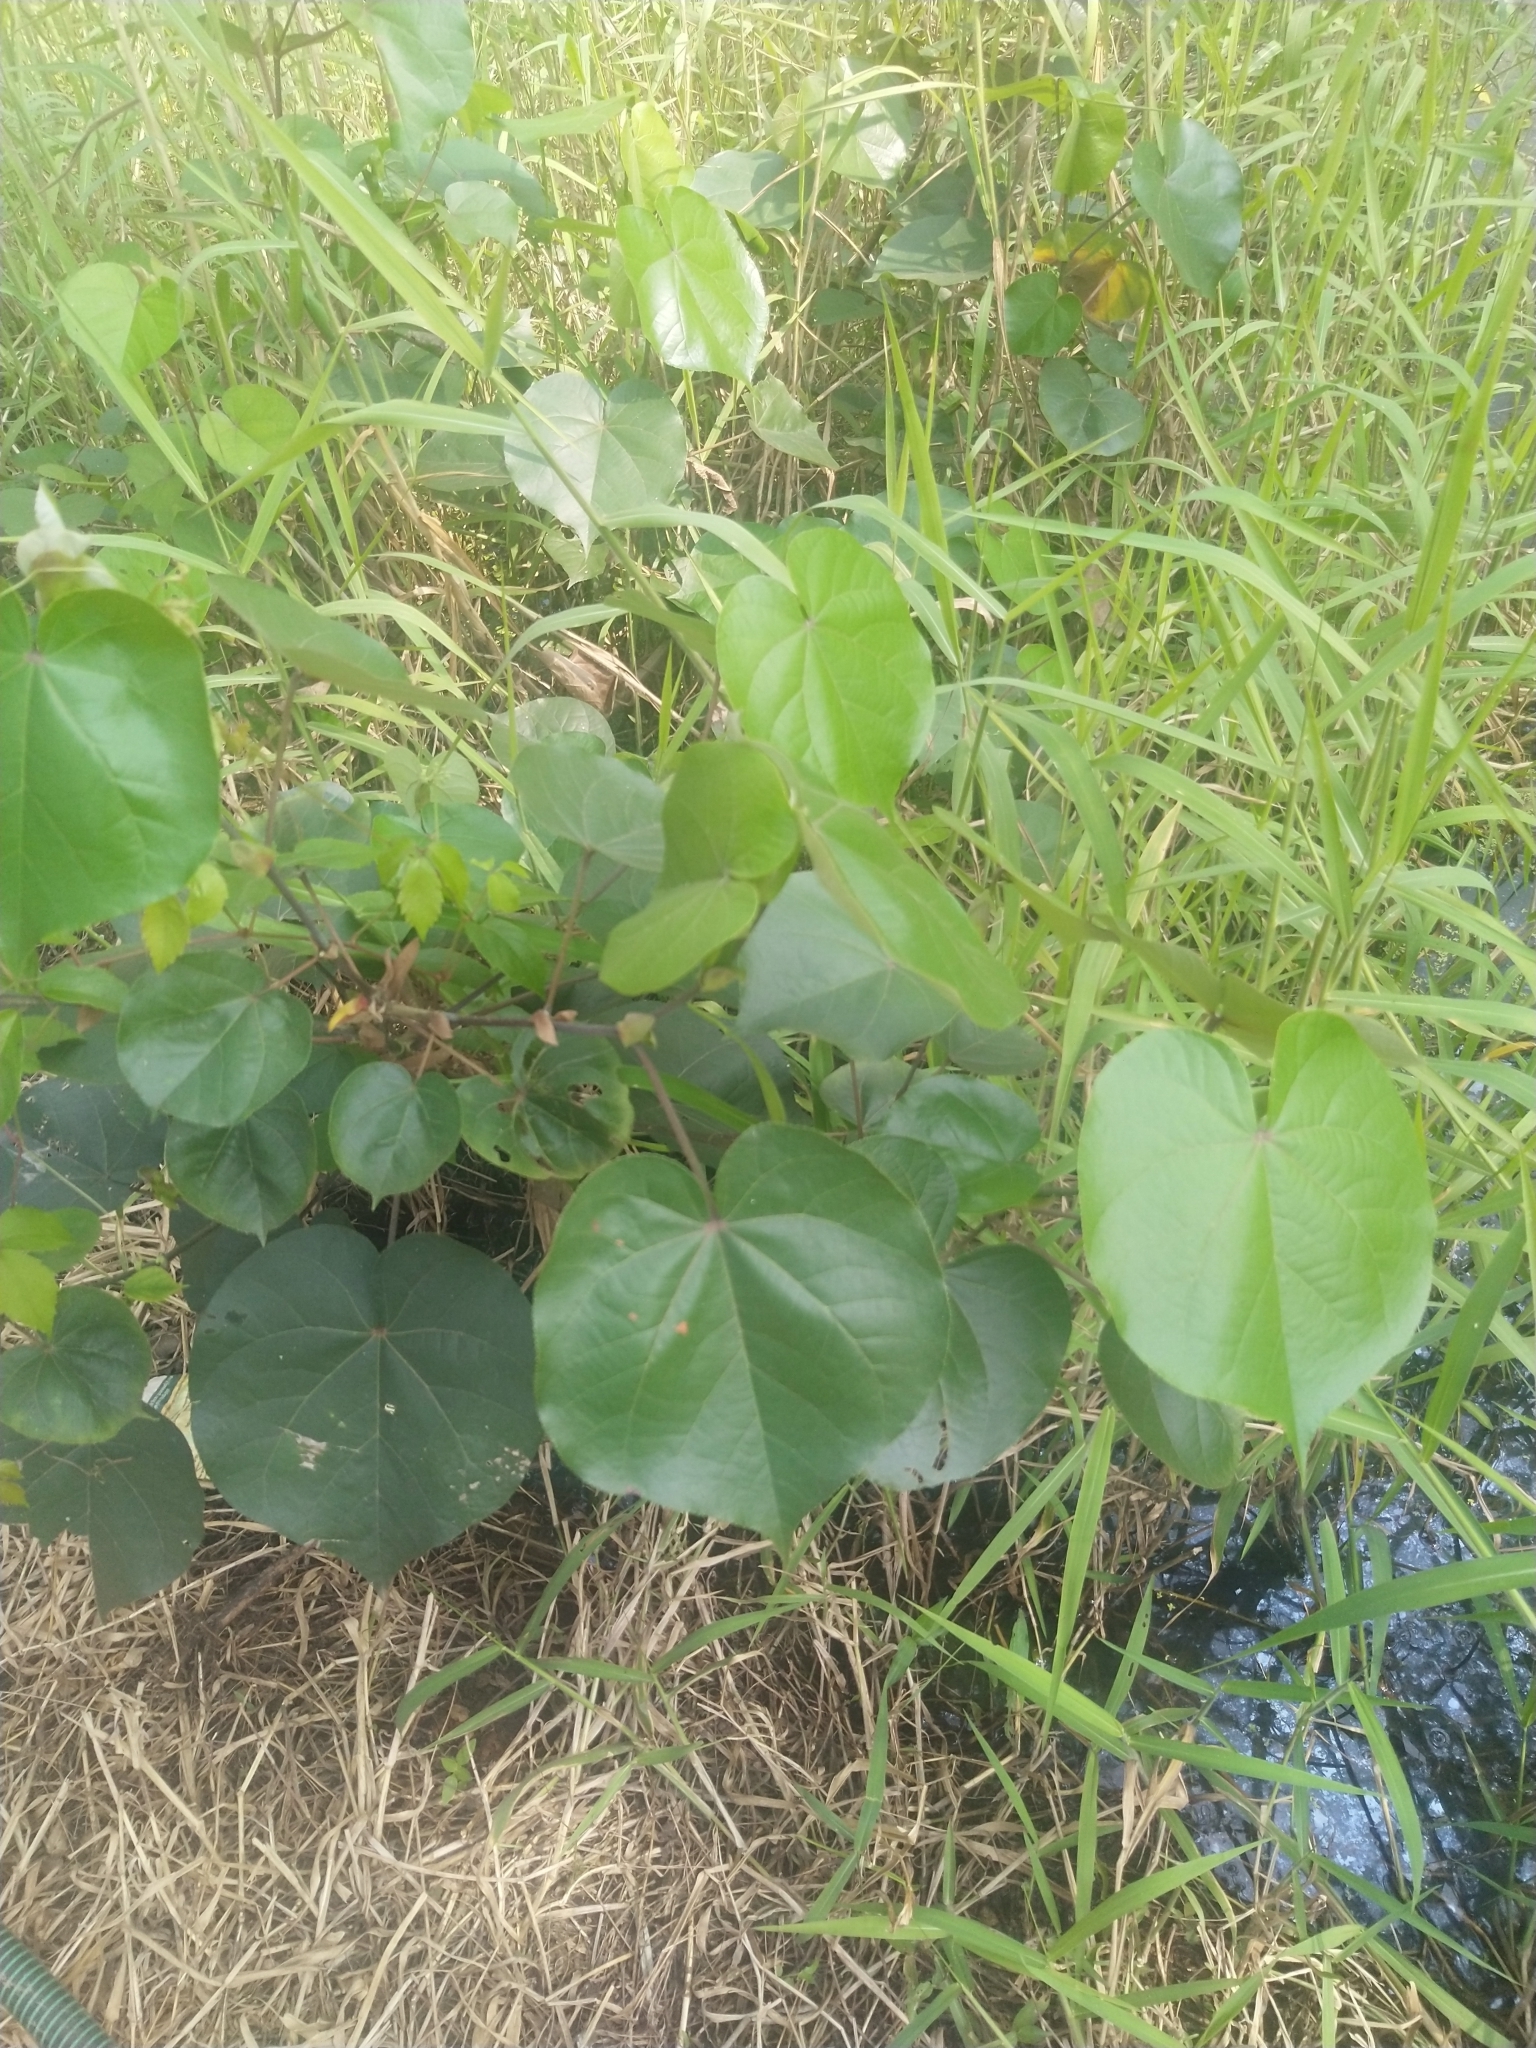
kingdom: Plantae
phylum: Tracheophyta
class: Magnoliopsida
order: Malvales
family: Malvaceae
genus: Talipariti
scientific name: Talipariti tiliaceum
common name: Sea hibiscus
